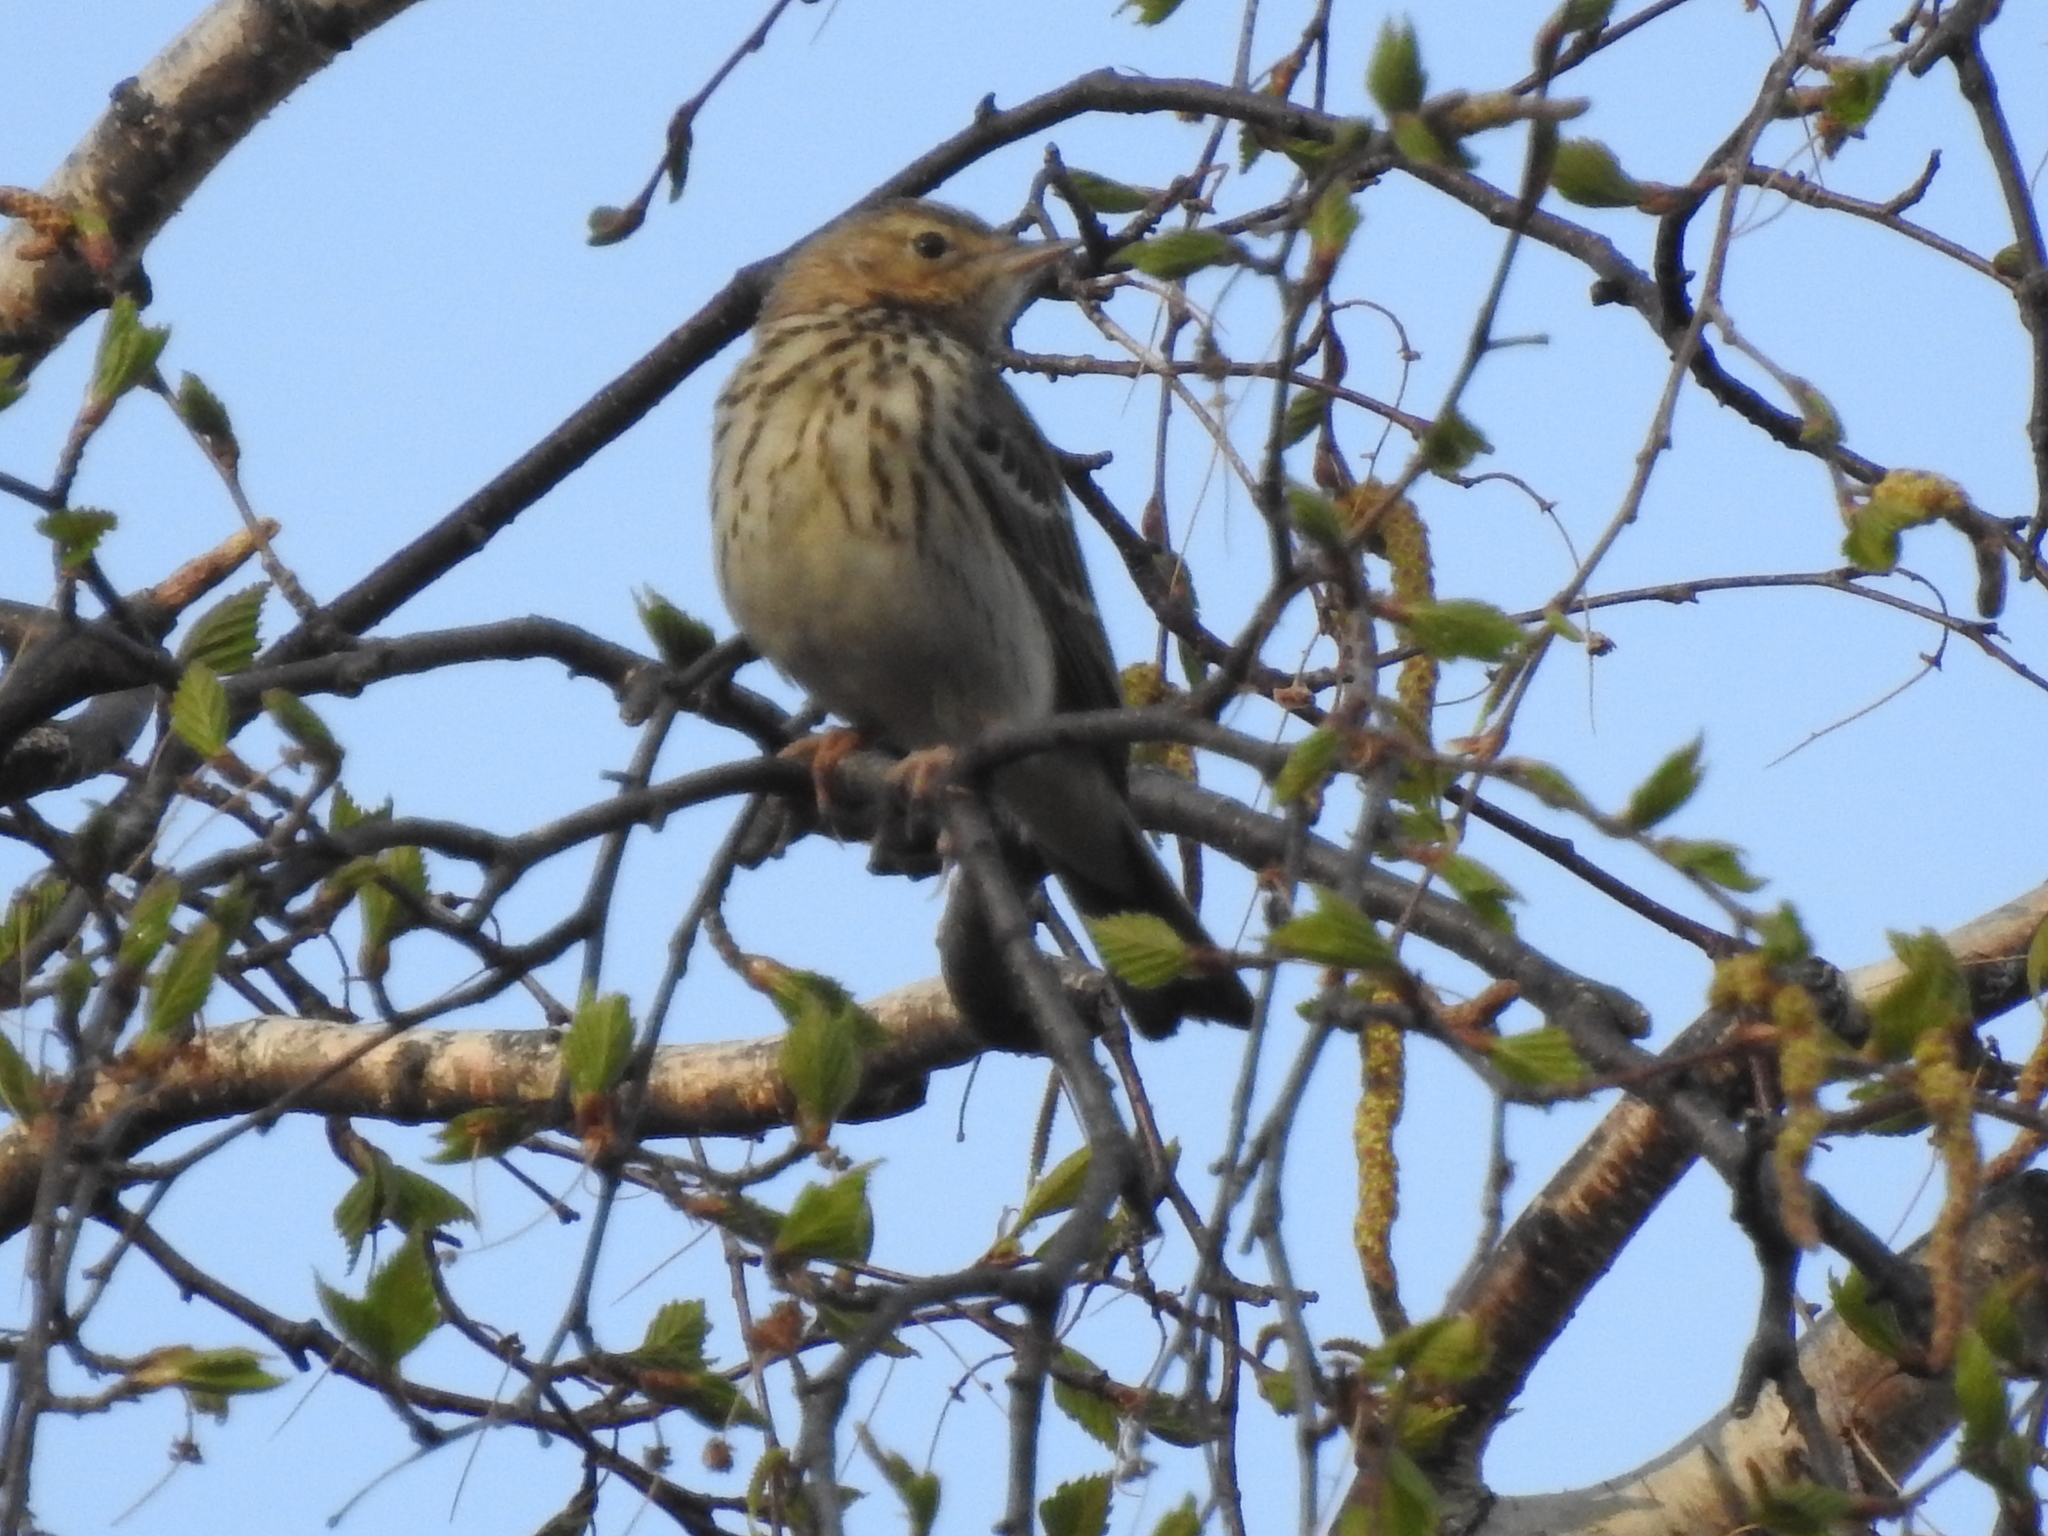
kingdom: Animalia
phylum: Chordata
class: Aves
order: Passeriformes
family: Motacillidae
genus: Anthus
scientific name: Anthus trivialis
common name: Tree pipit
